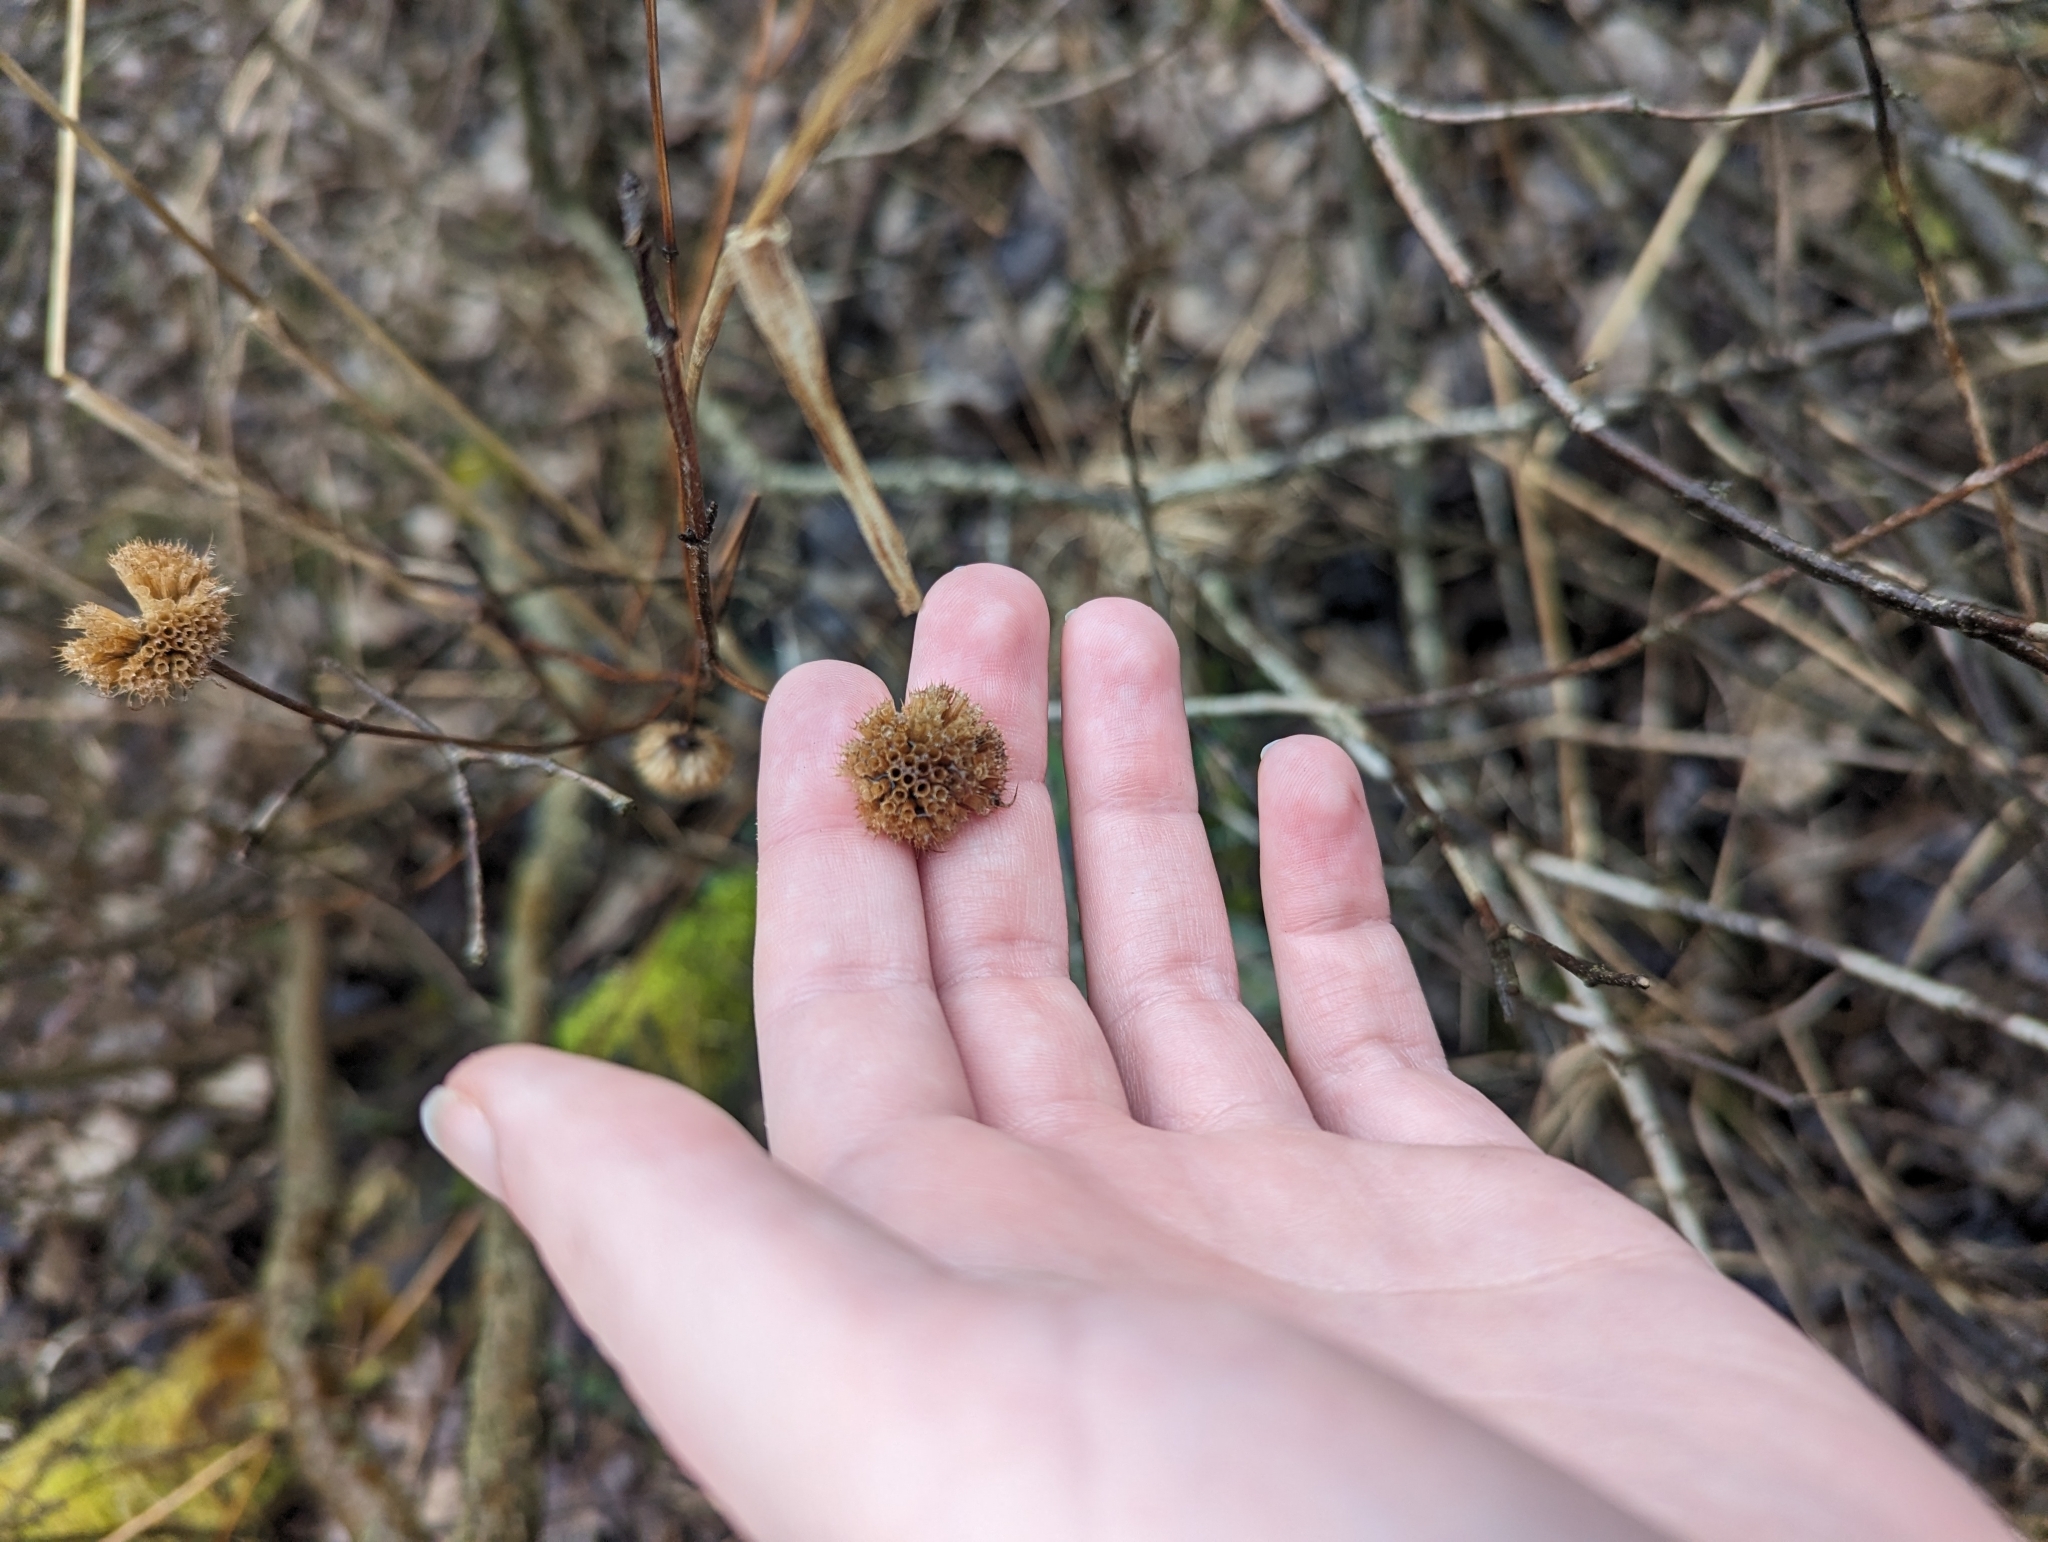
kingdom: Plantae
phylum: Tracheophyta
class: Magnoliopsida
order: Lamiales
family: Lamiaceae
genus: Monarda
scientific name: Monarda fistulosa
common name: Purple beebalm
